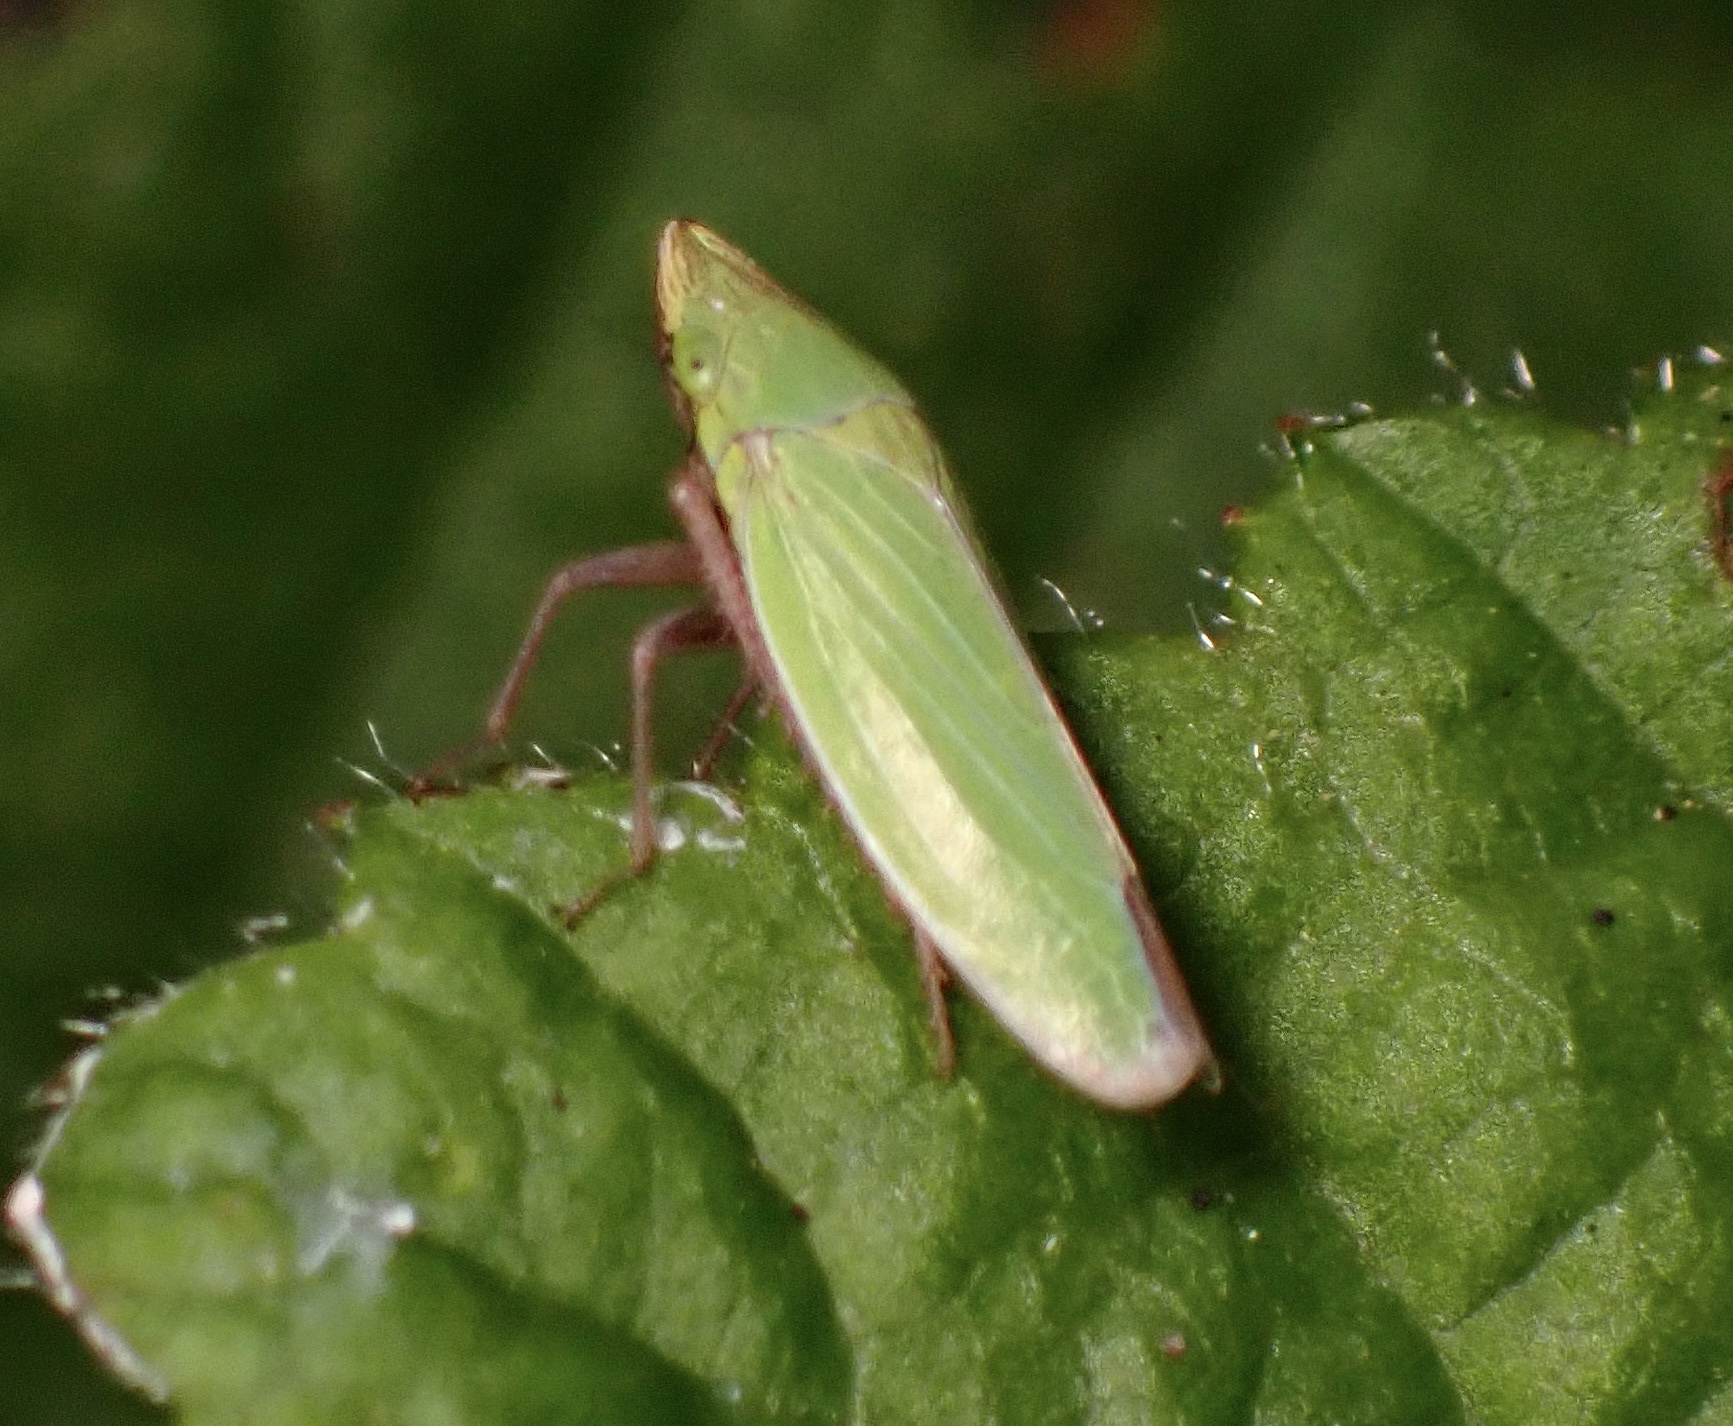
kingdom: Animalia
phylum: Arthropoda
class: Insecta
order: Hemiptera
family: Cicadellidae
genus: Draeculacephala
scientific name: Draeculacephala minerva
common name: Grass sharphooter
